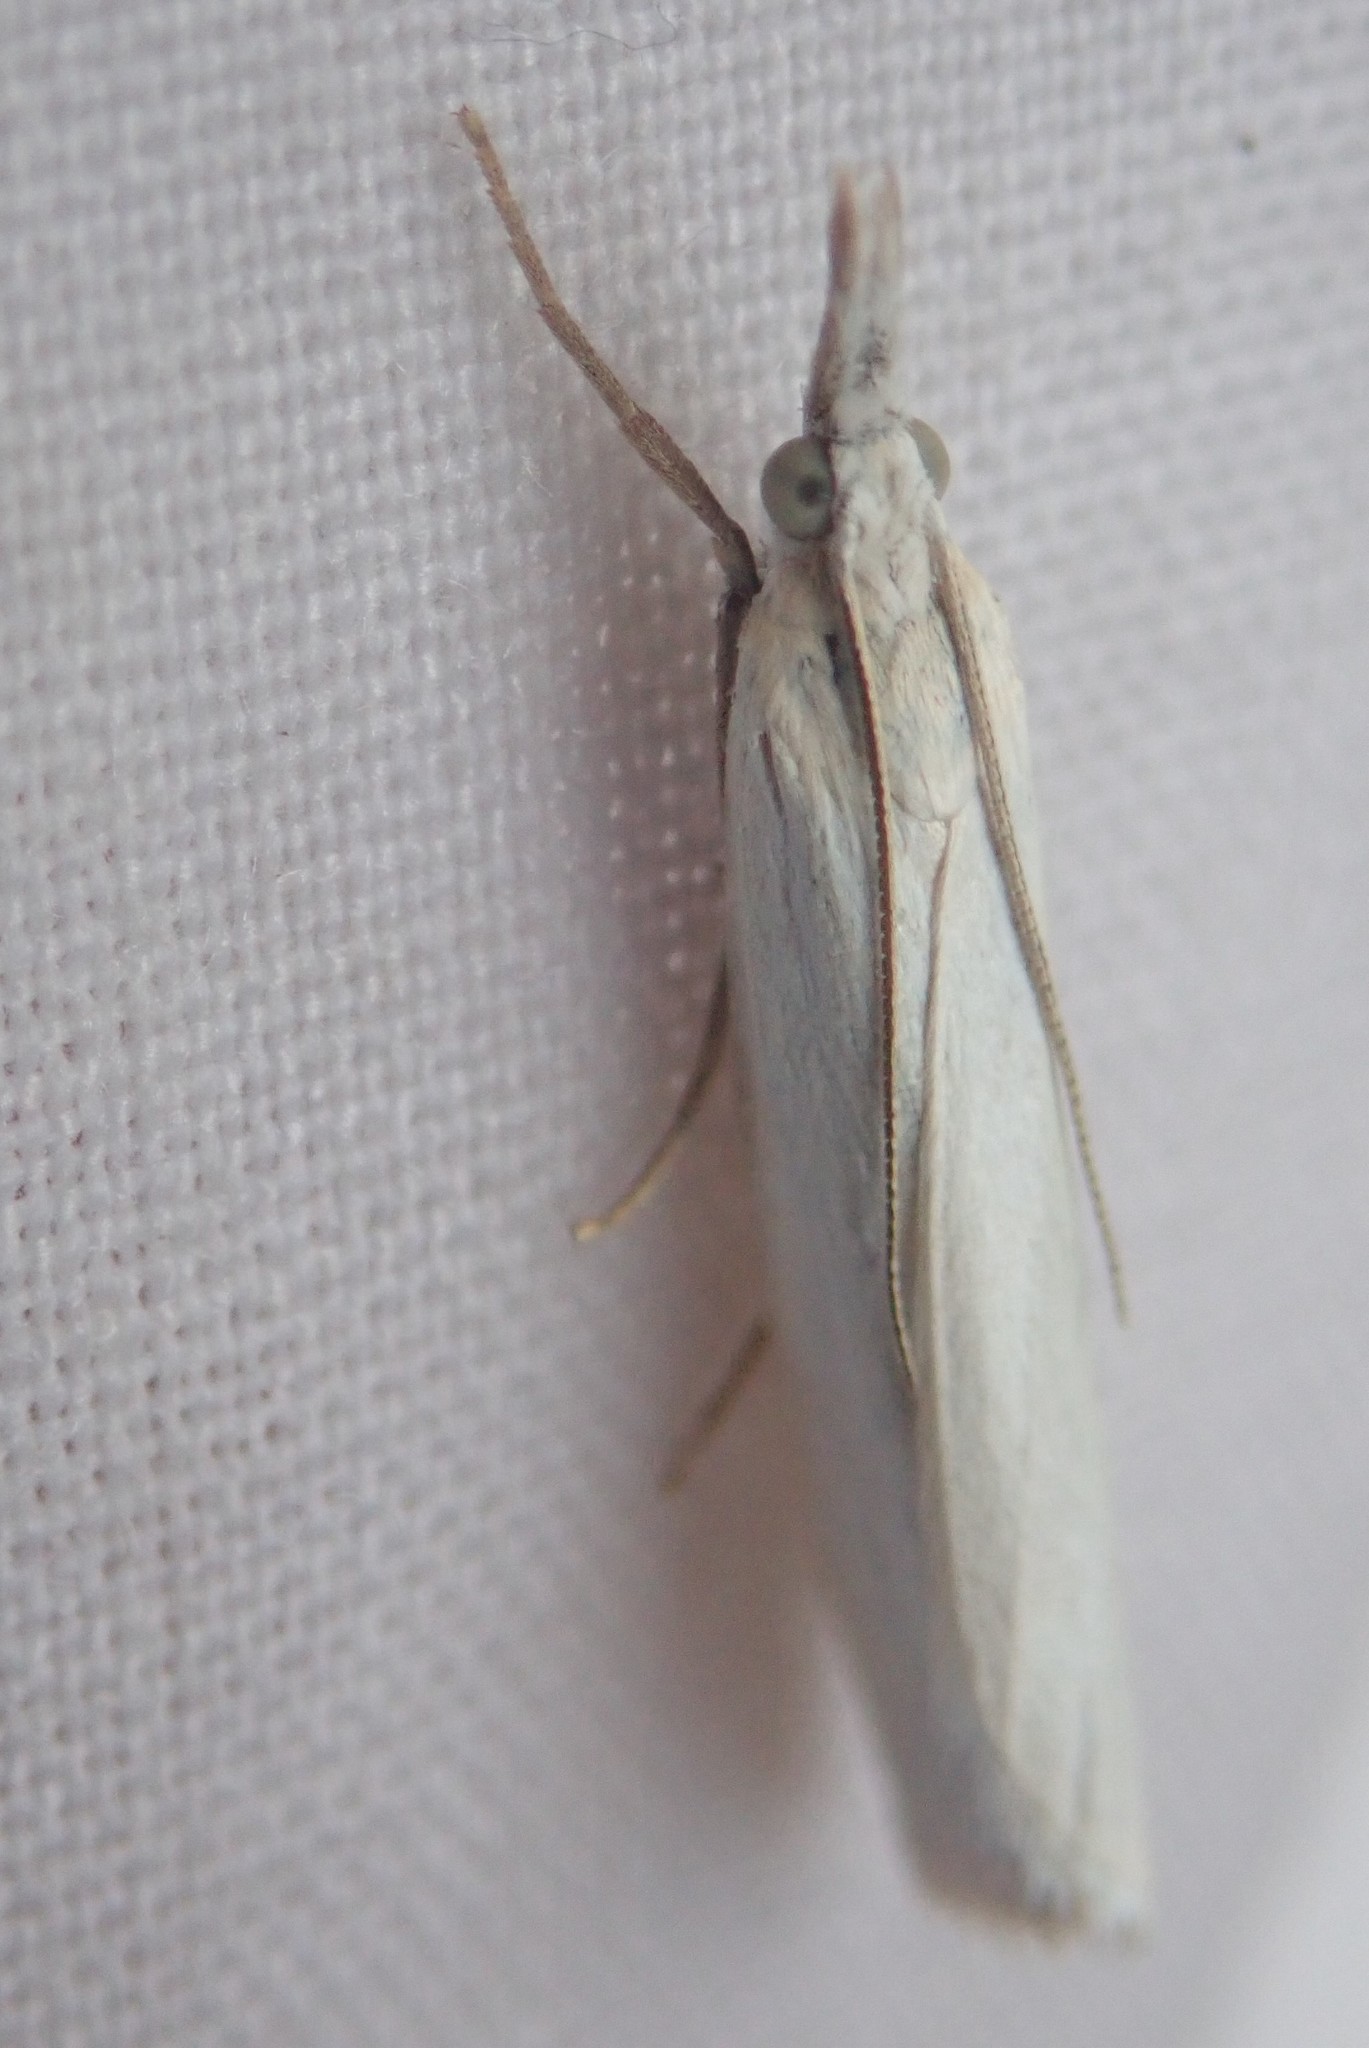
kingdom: Animalia
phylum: Arthropoda
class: Insecta
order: Lepidoptera
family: Crambidae
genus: Crambus
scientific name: Crambus perlellus
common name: Yellow satin veneer
